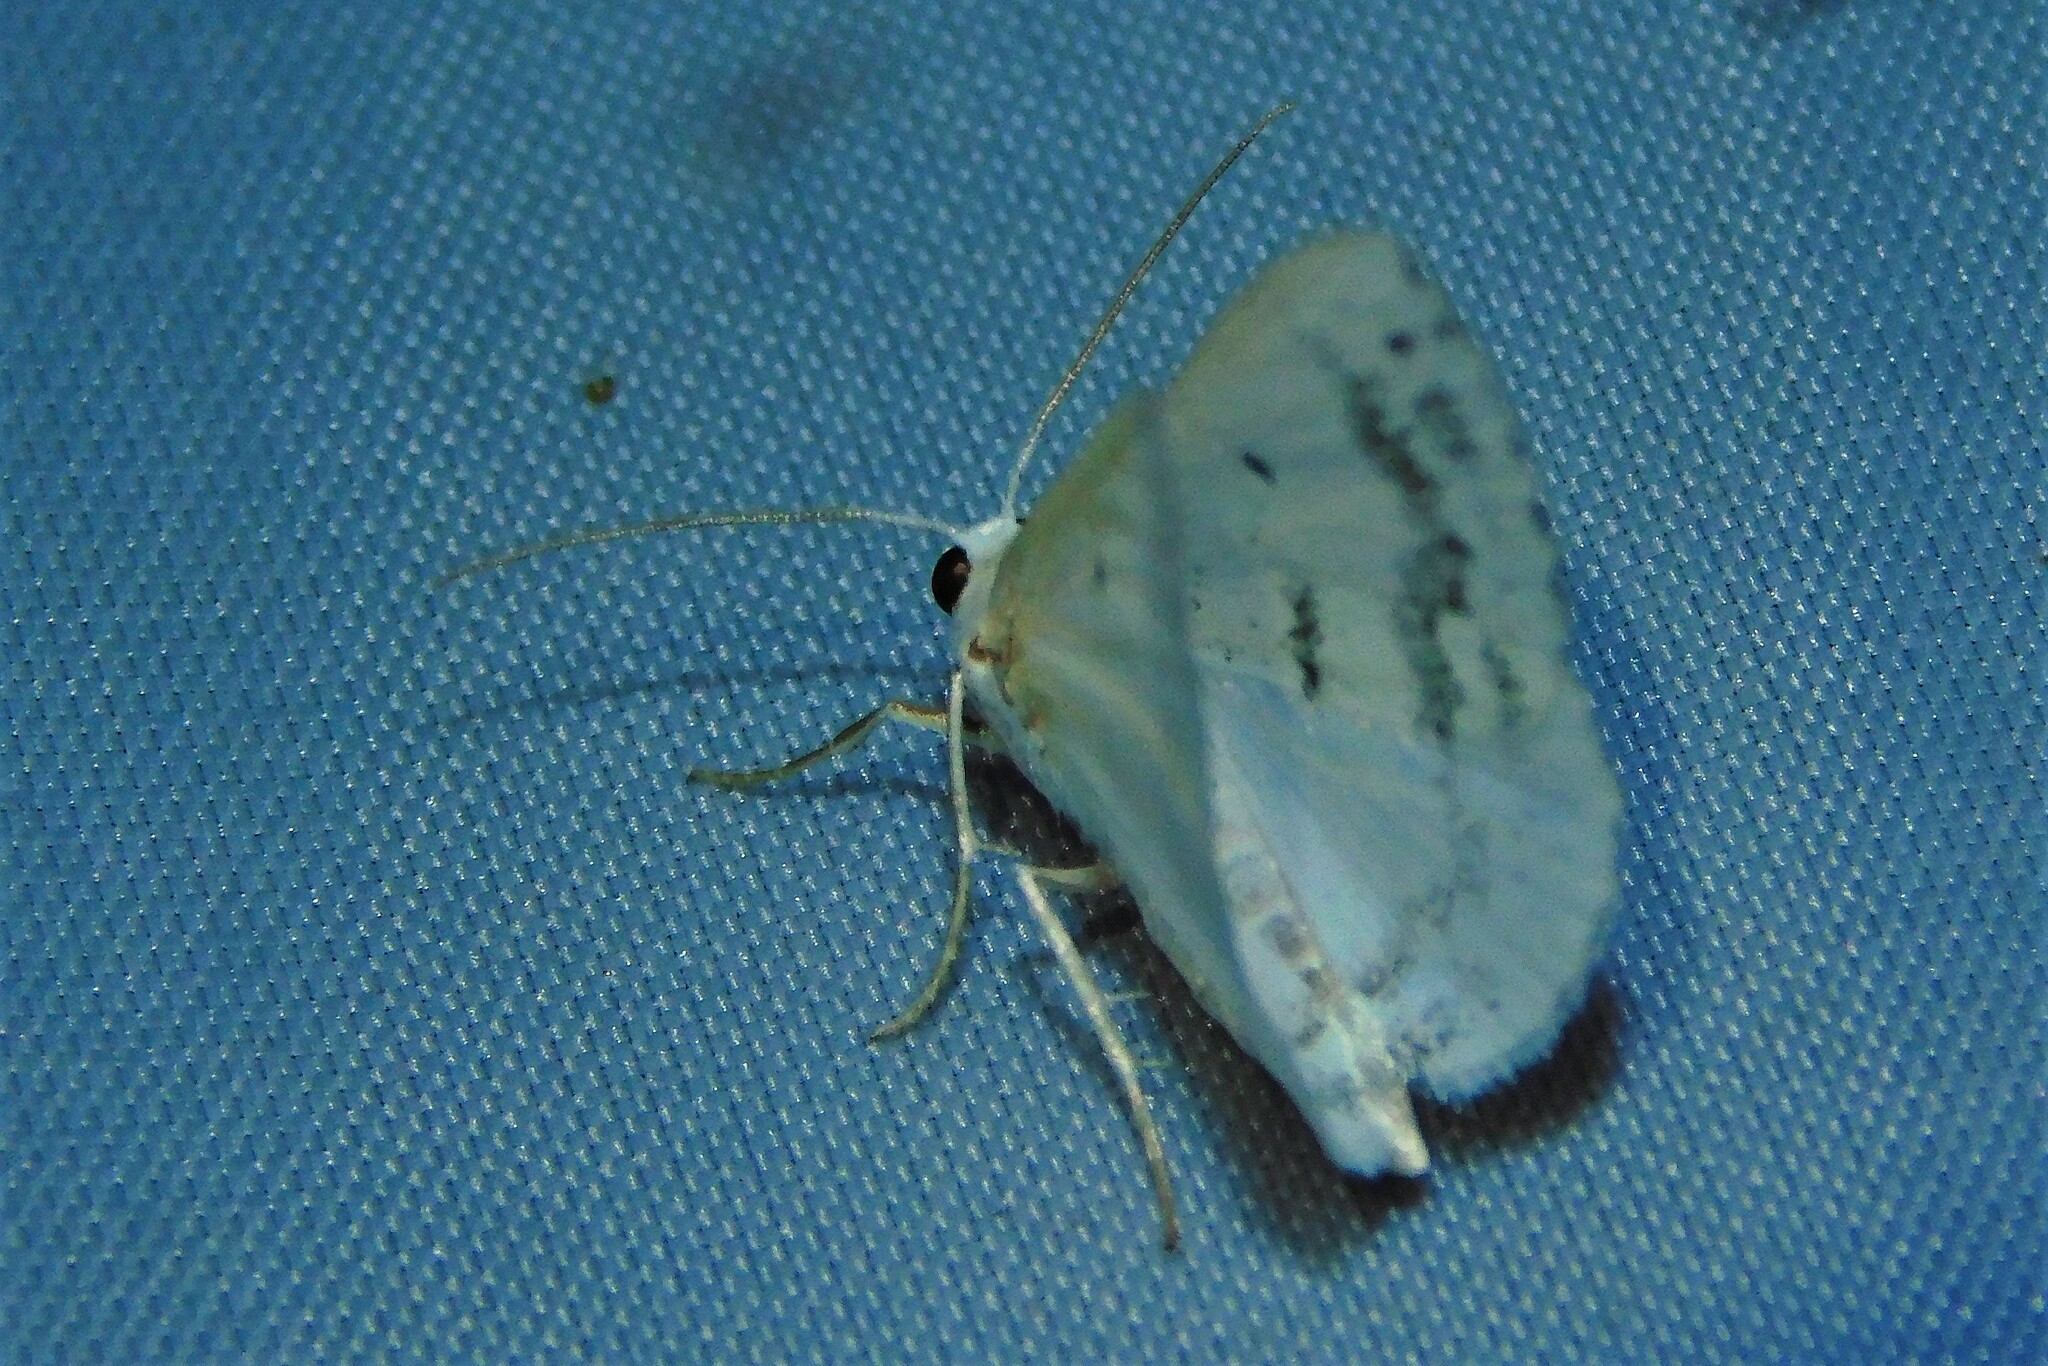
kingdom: Animalia
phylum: Arthropoda
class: Insecta
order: Lepidoptera
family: Geometridae
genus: Lomographa
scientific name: Lomographa temerata
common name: Clouded silver
